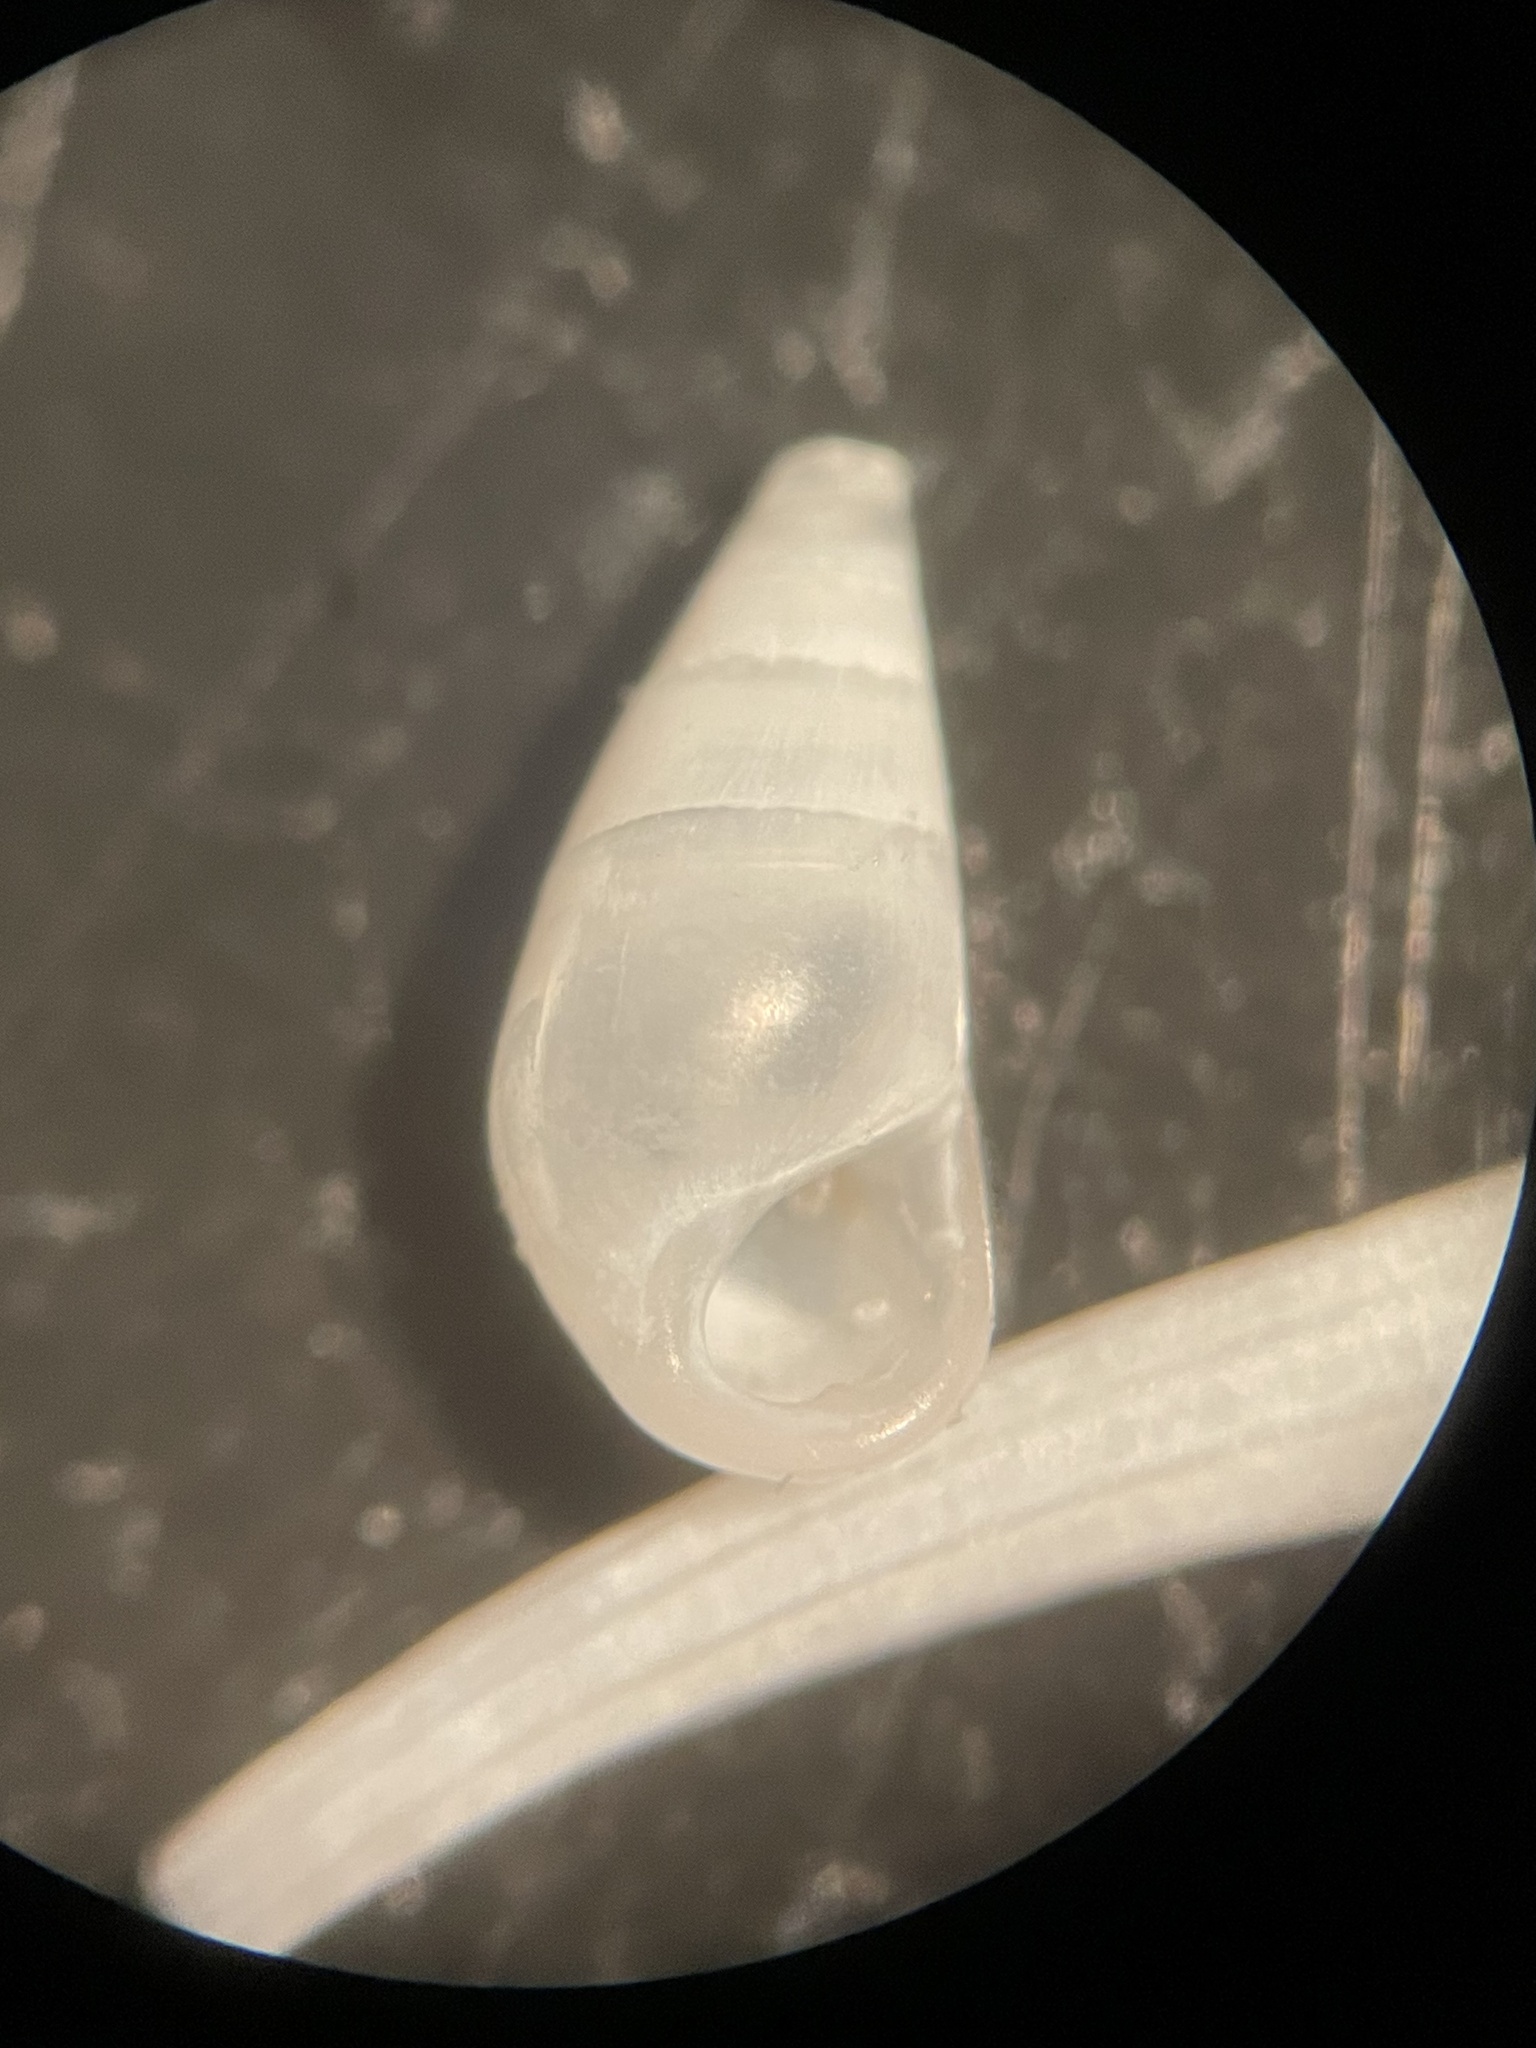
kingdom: Animalia
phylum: Mollusca
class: Gastropoda
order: Littorinimorpha
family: Zebinidae
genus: Zebina
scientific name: Zebina browniana
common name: Smooth risso
